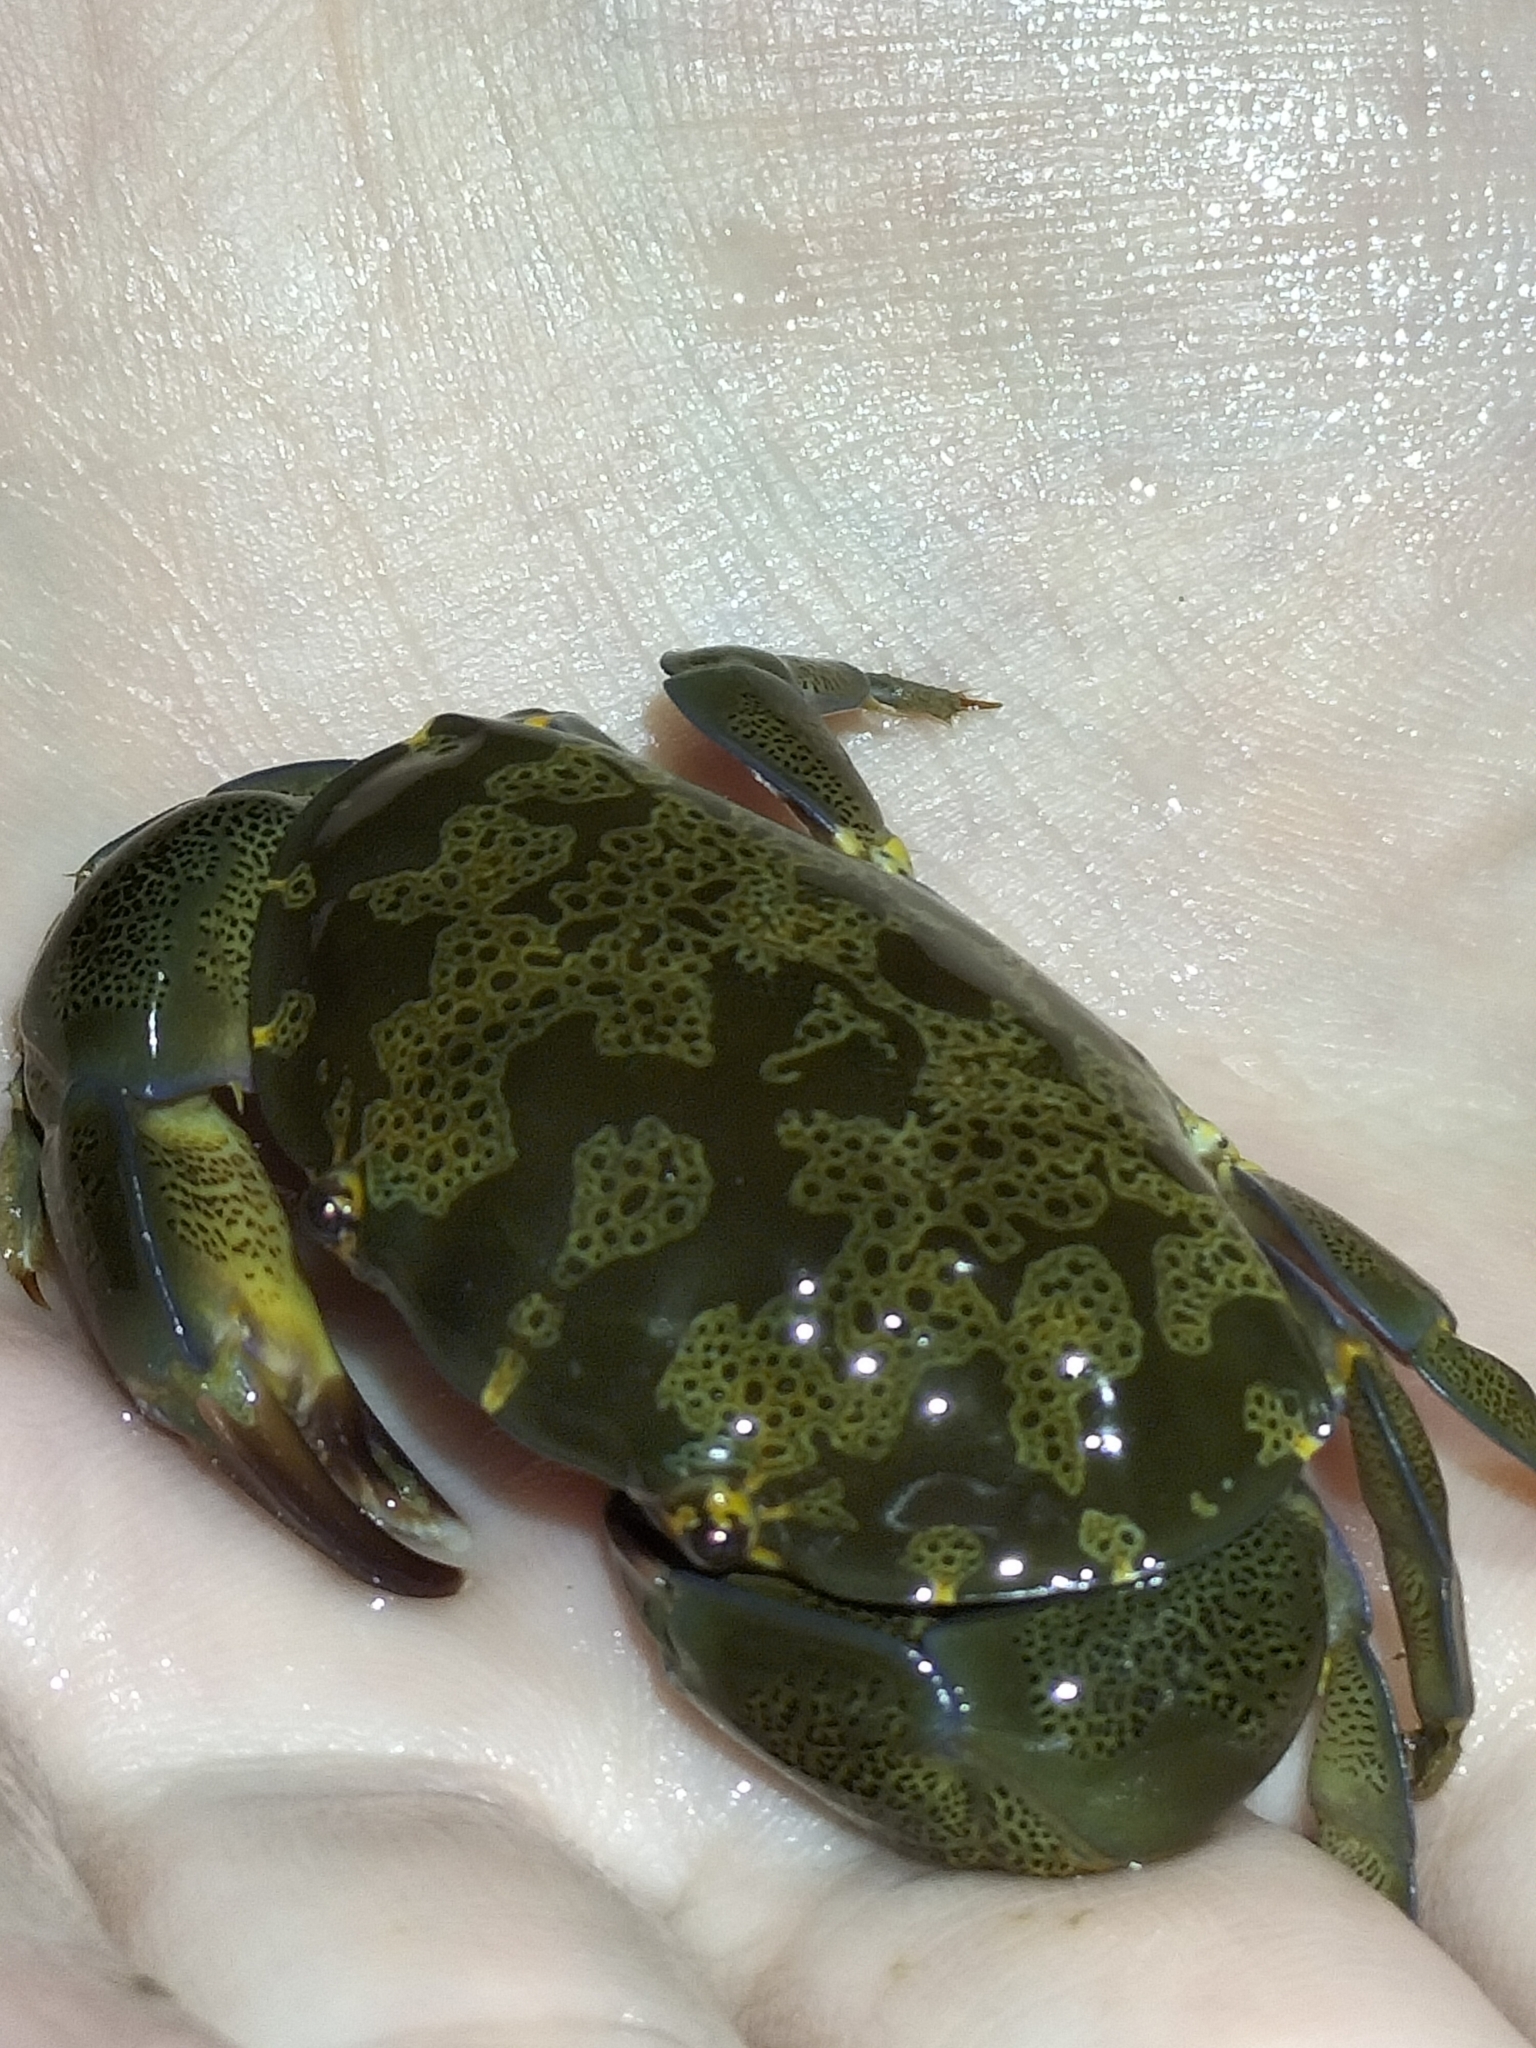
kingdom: Animalia
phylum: Arthropoda
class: Malacostraca
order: Decapoda
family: Xanthidae
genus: Atergatis
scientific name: Atergatis floridus
